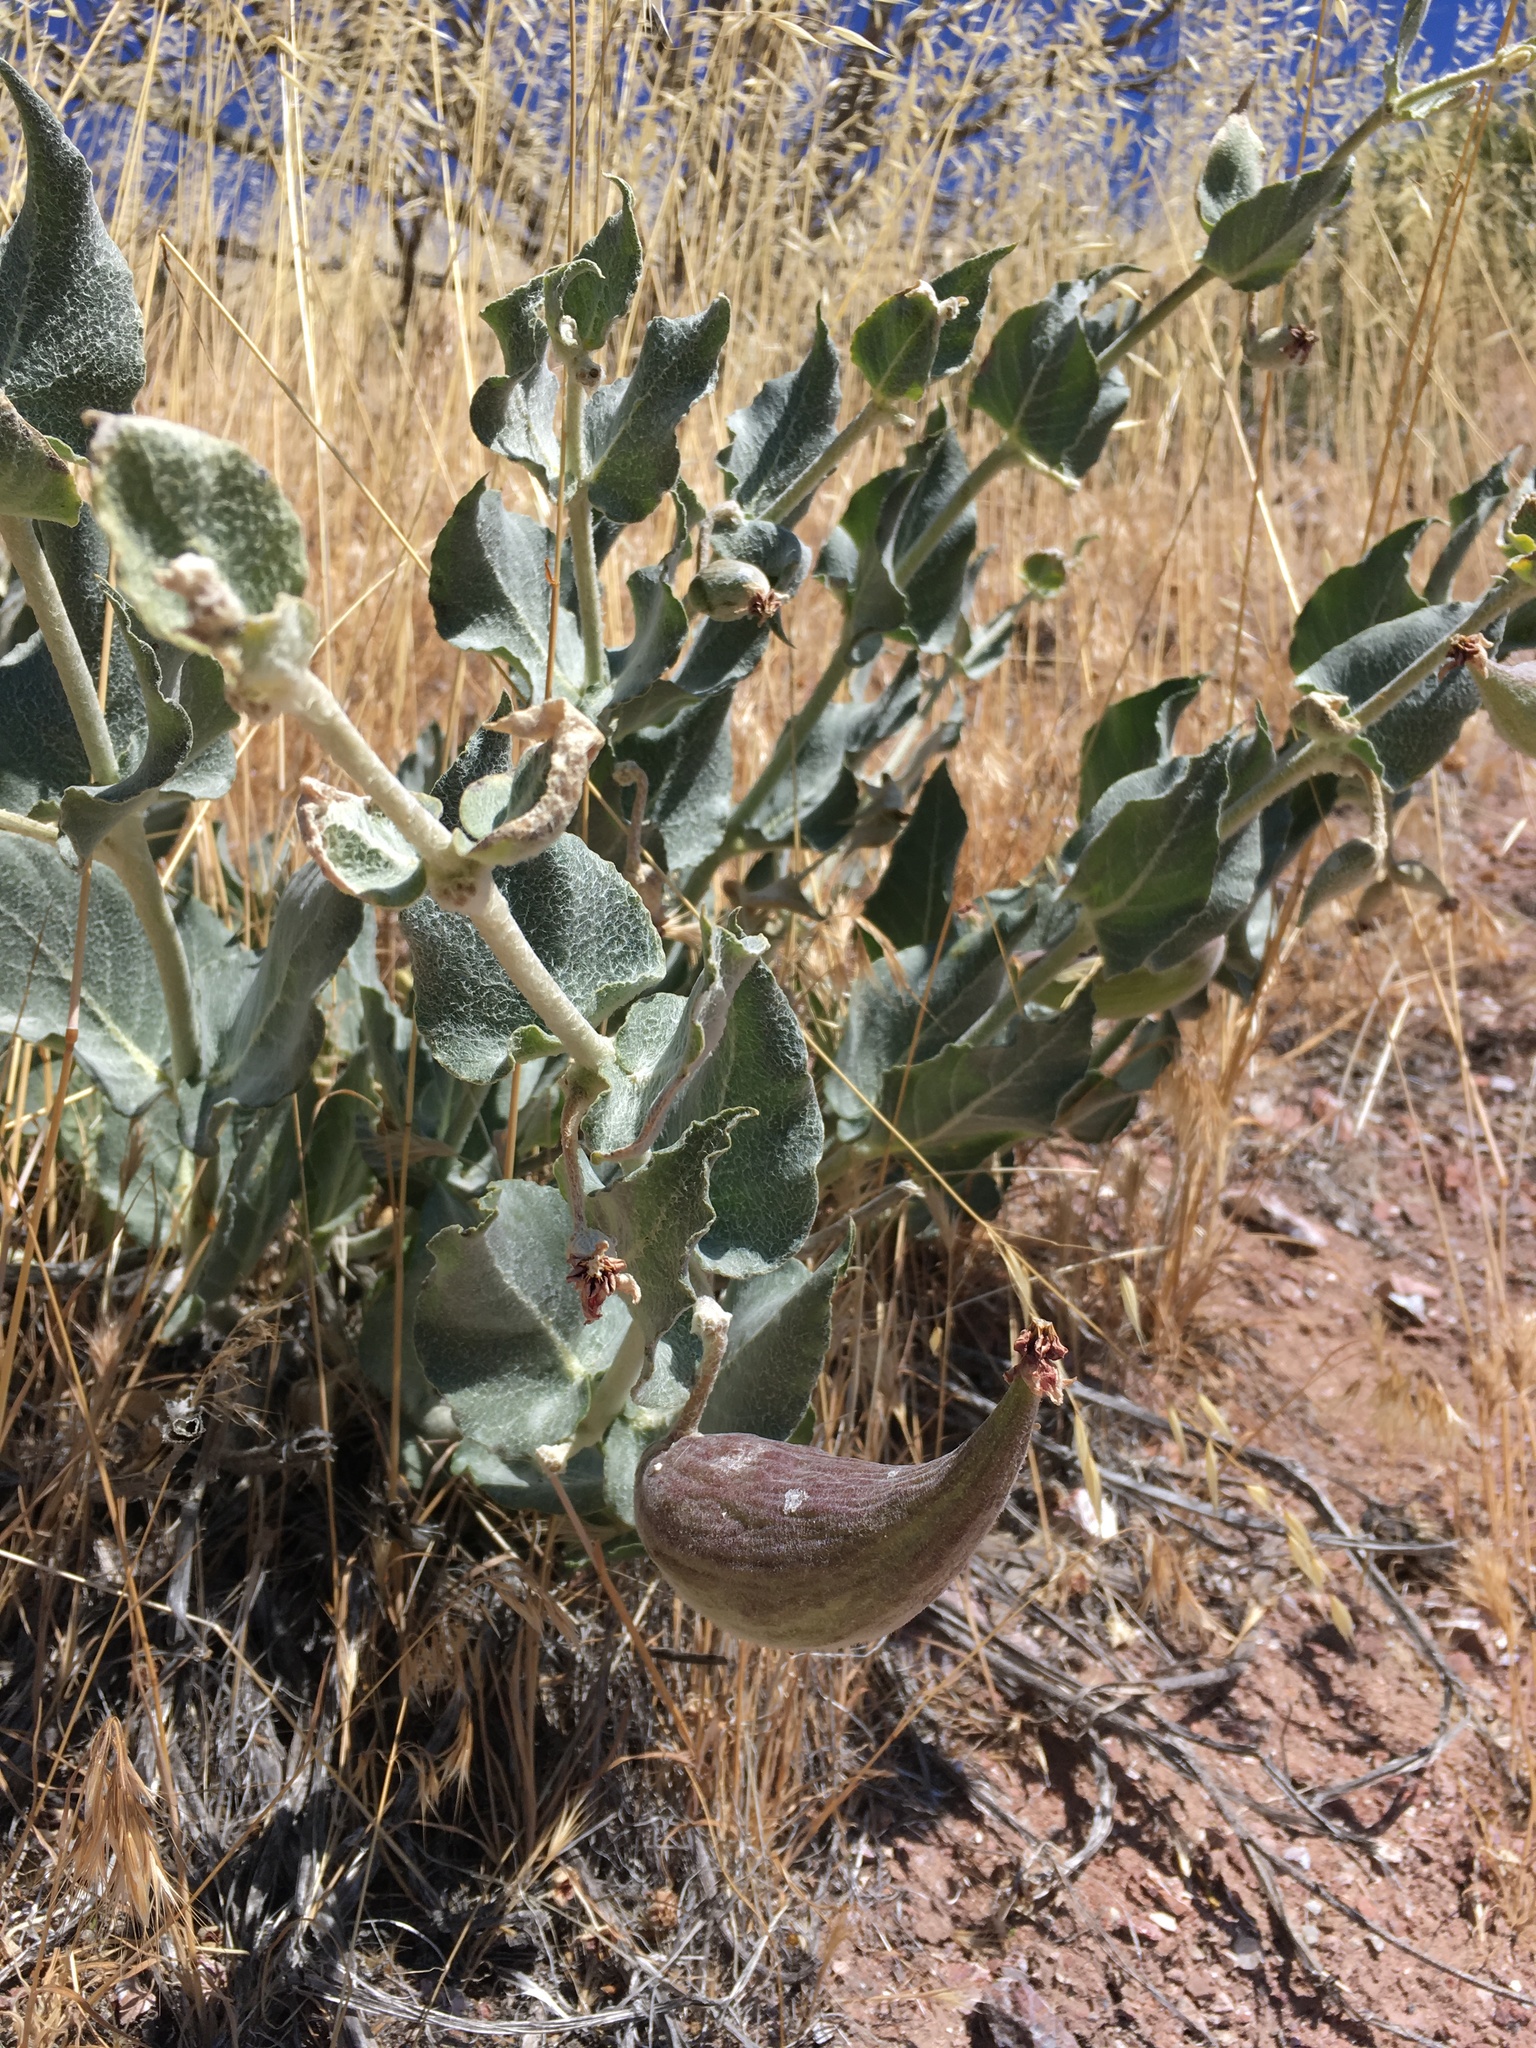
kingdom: Plantae
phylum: Tracheophyta
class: Magnoliopsida
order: Gentianales
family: Apocynaceae
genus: Asclepias
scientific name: Asclepias californica
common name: California milkweed
